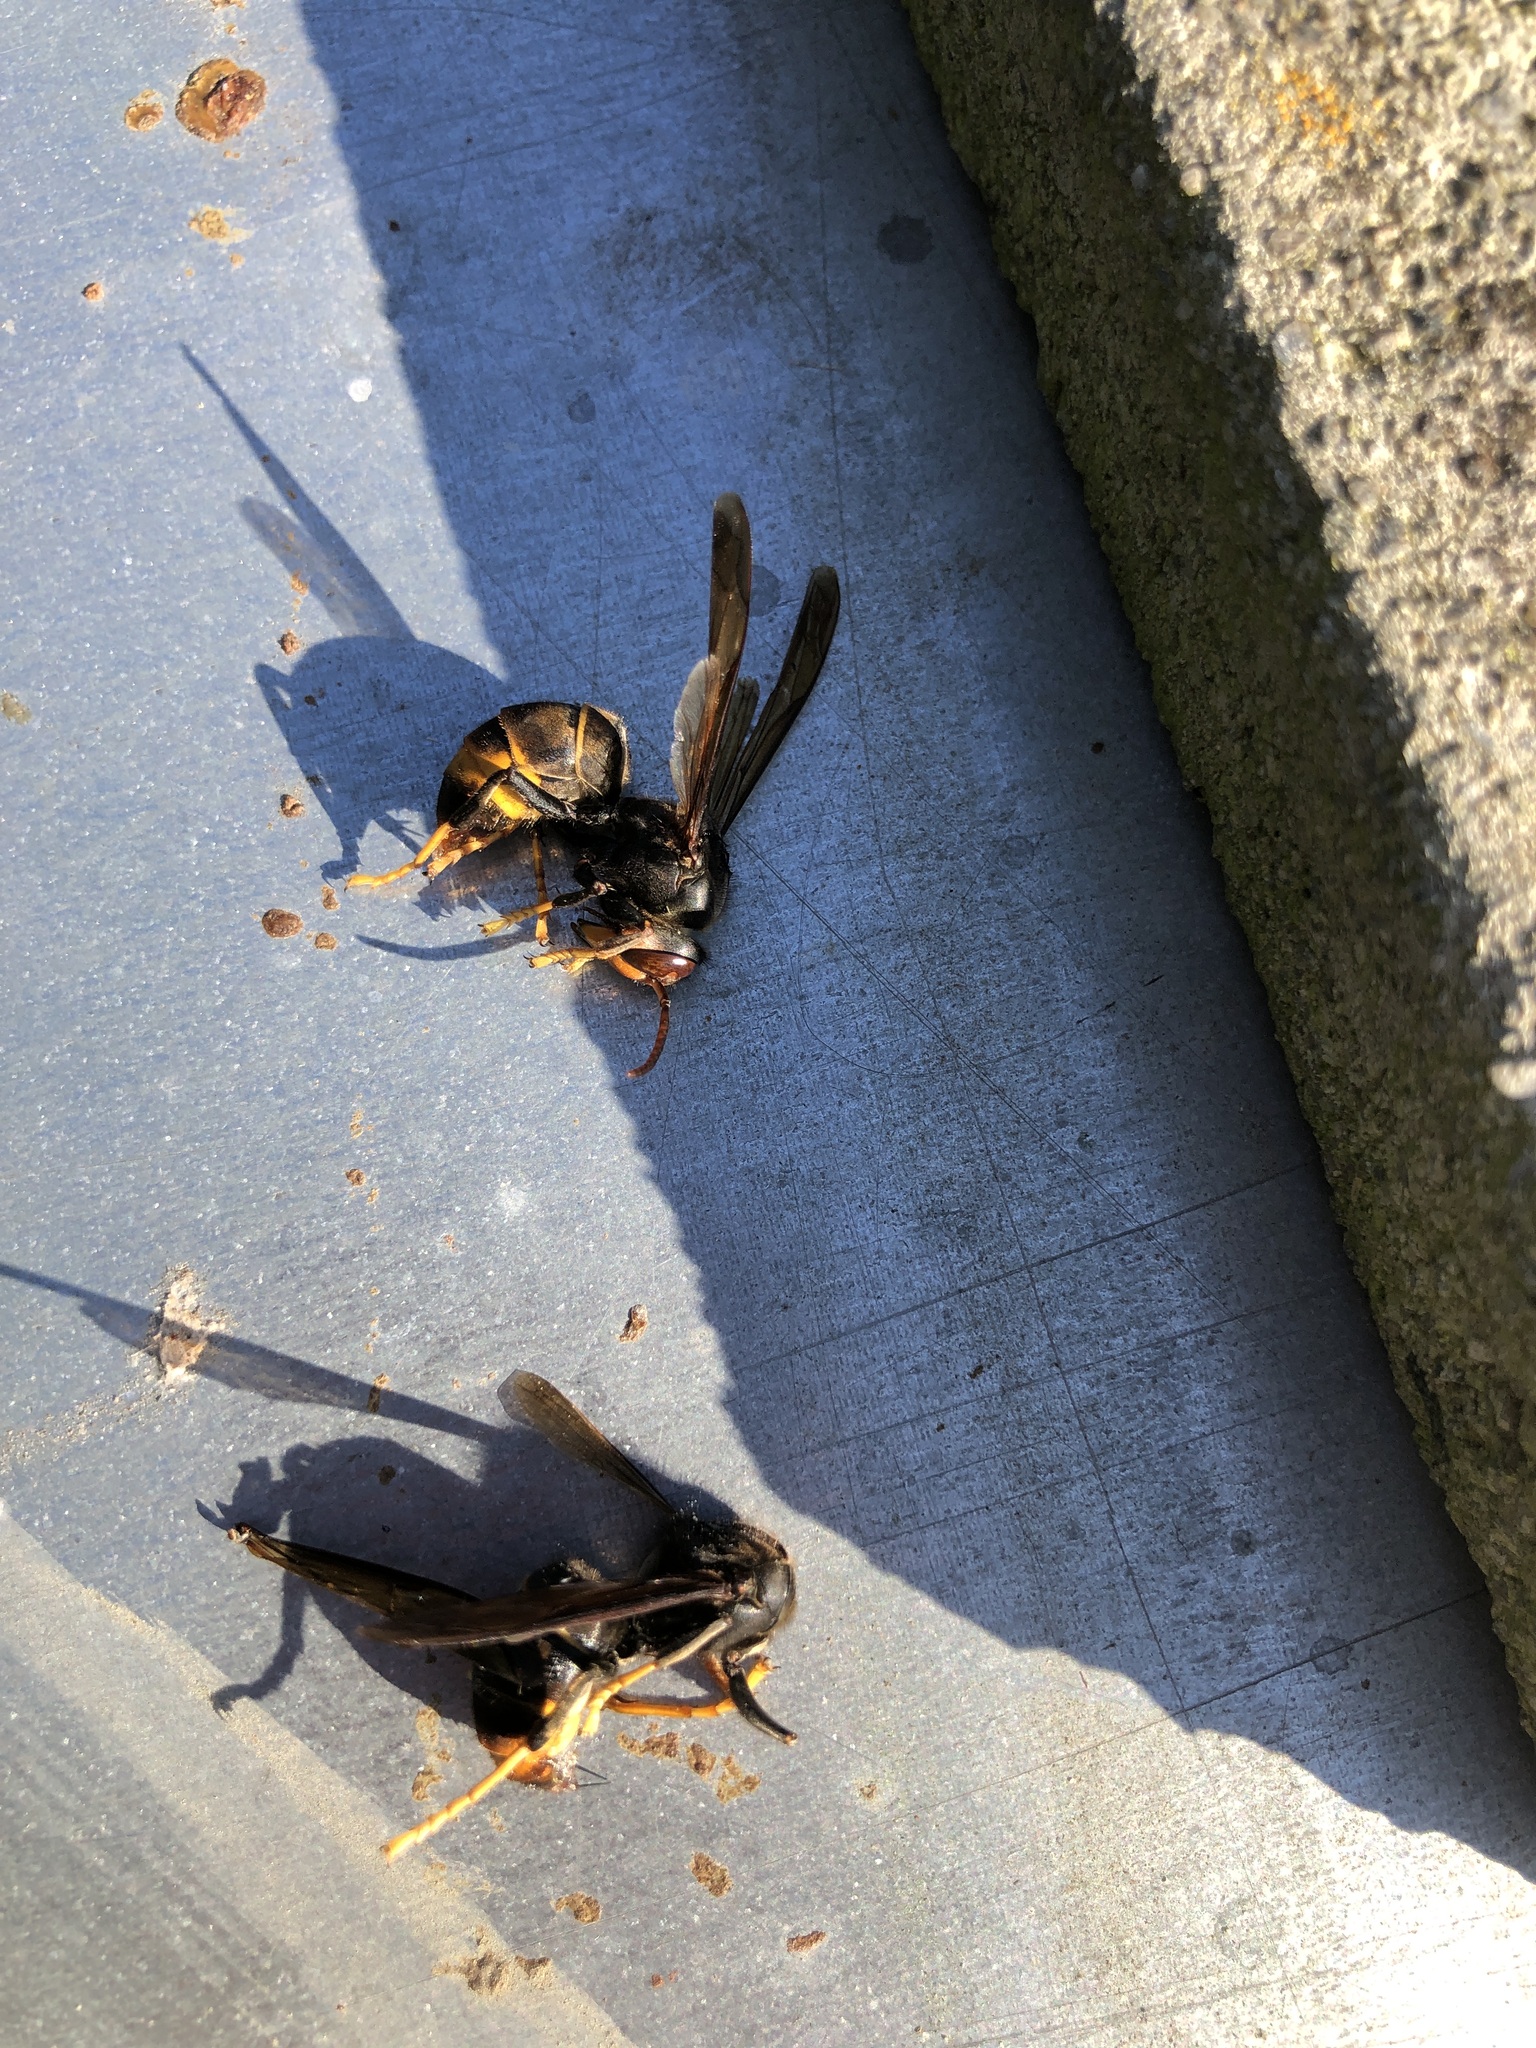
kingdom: Animalia
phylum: Arthropoda
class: Insecta
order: Hymenoptera
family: Vespidae
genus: Vespa
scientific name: Vespa velutina
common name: Asian hornet
